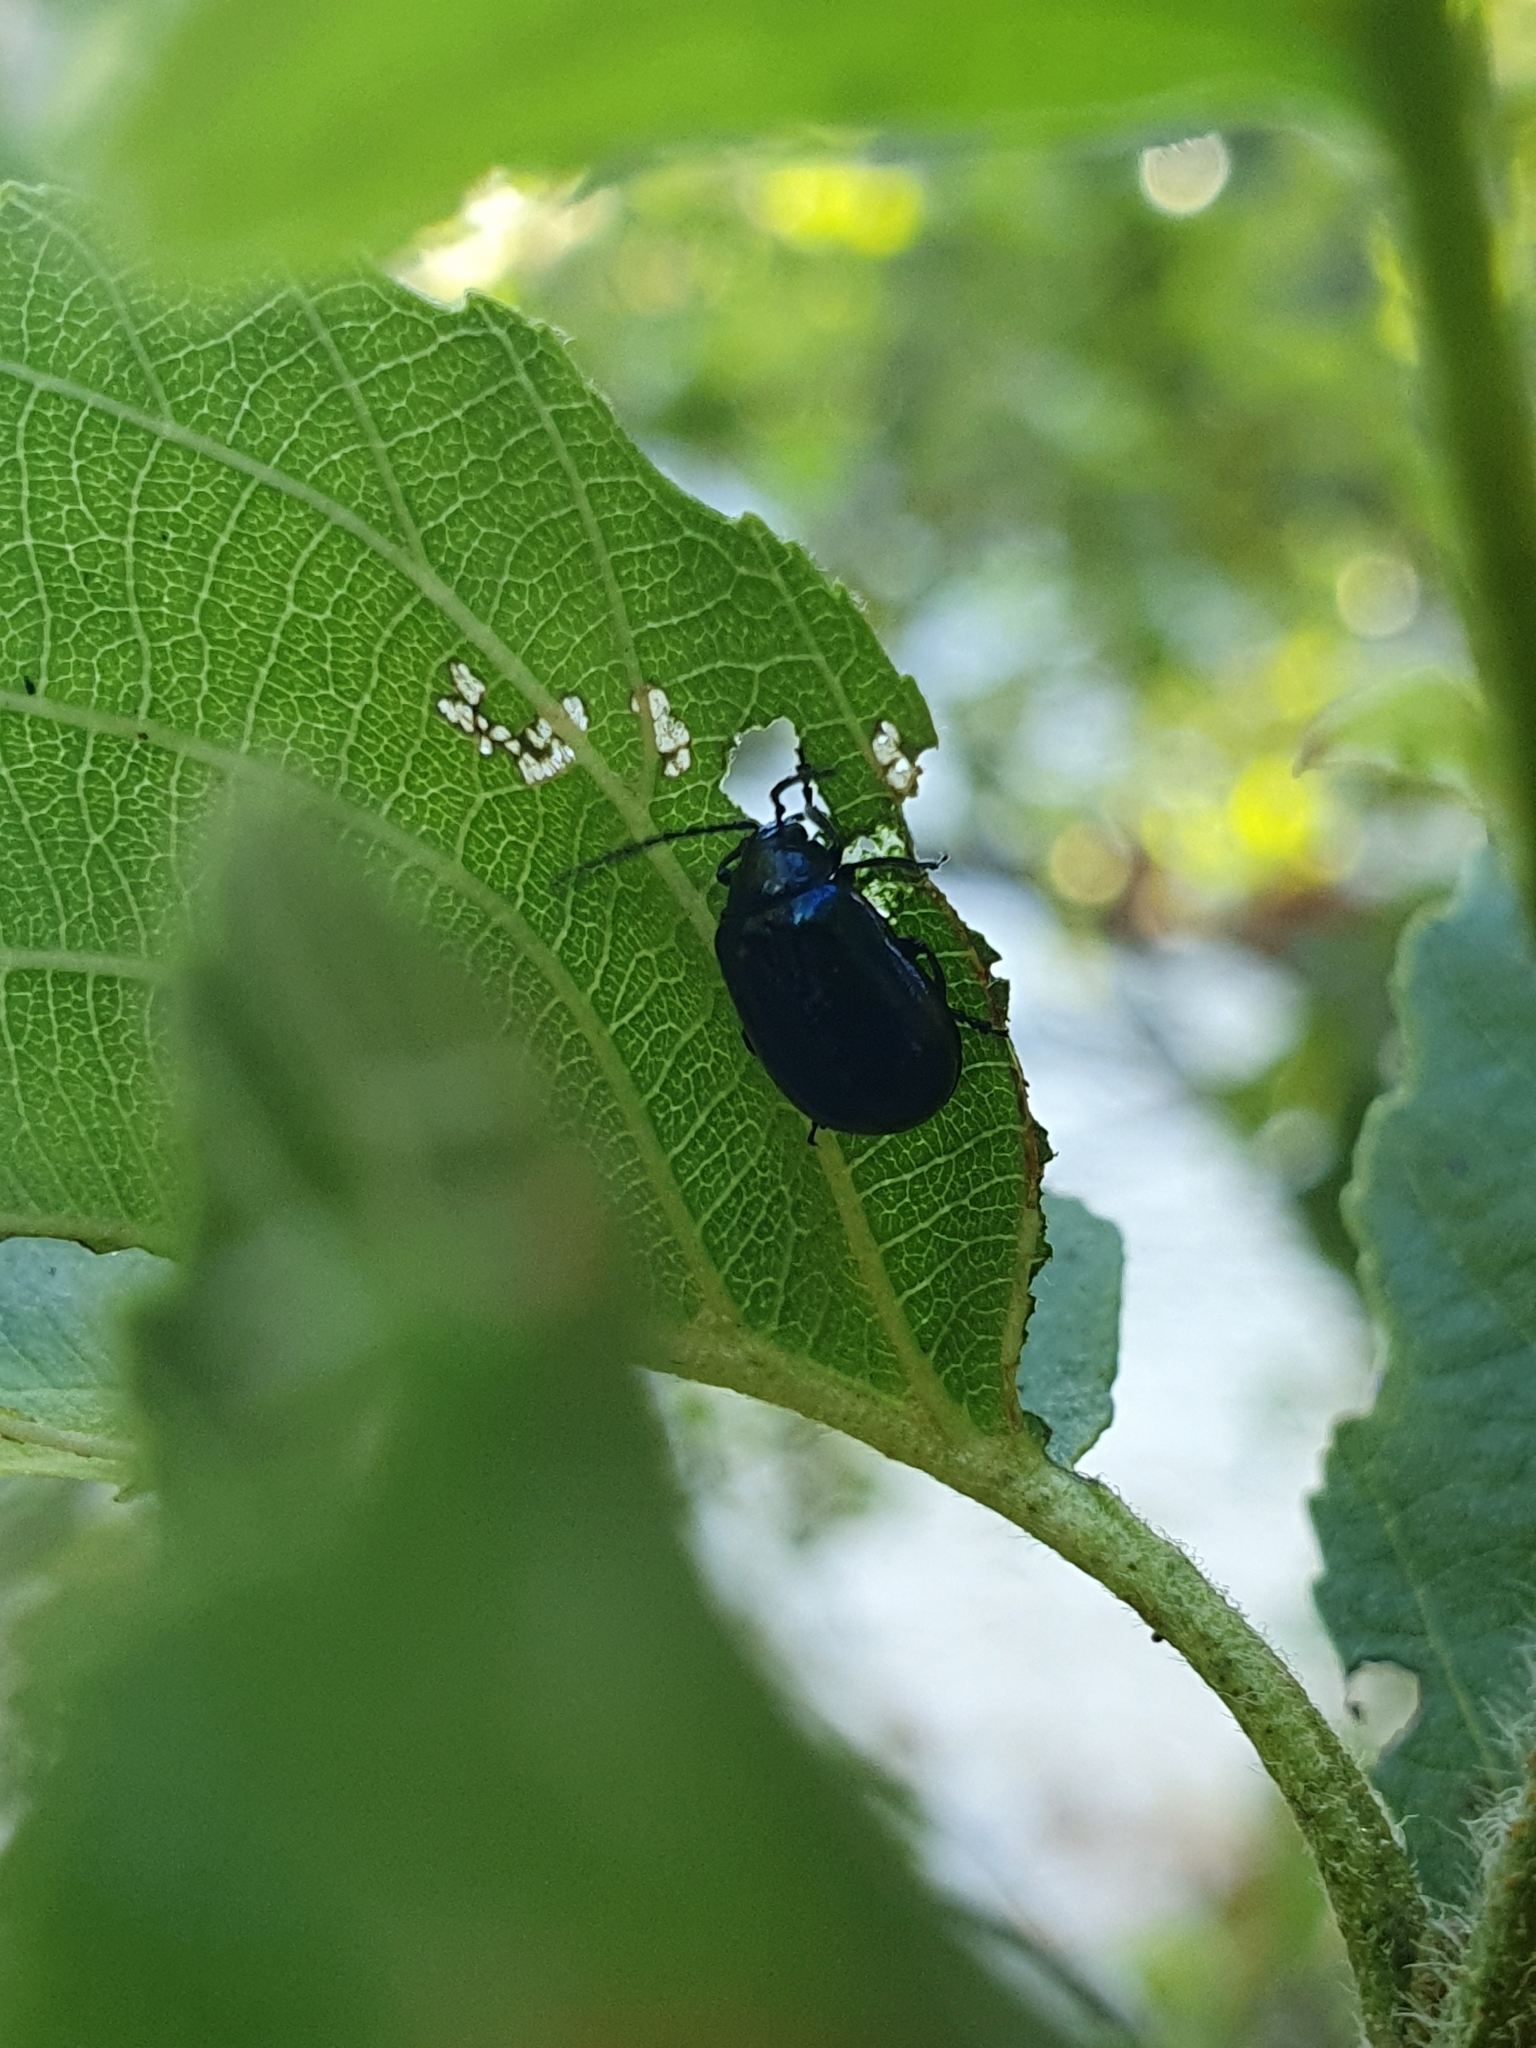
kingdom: Animalia
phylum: Arthropoda
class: Insecta
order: Coleoptera
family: Chrysomelidae
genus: Agelastica
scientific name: Agelastica alni
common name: Alder leaf beetle
